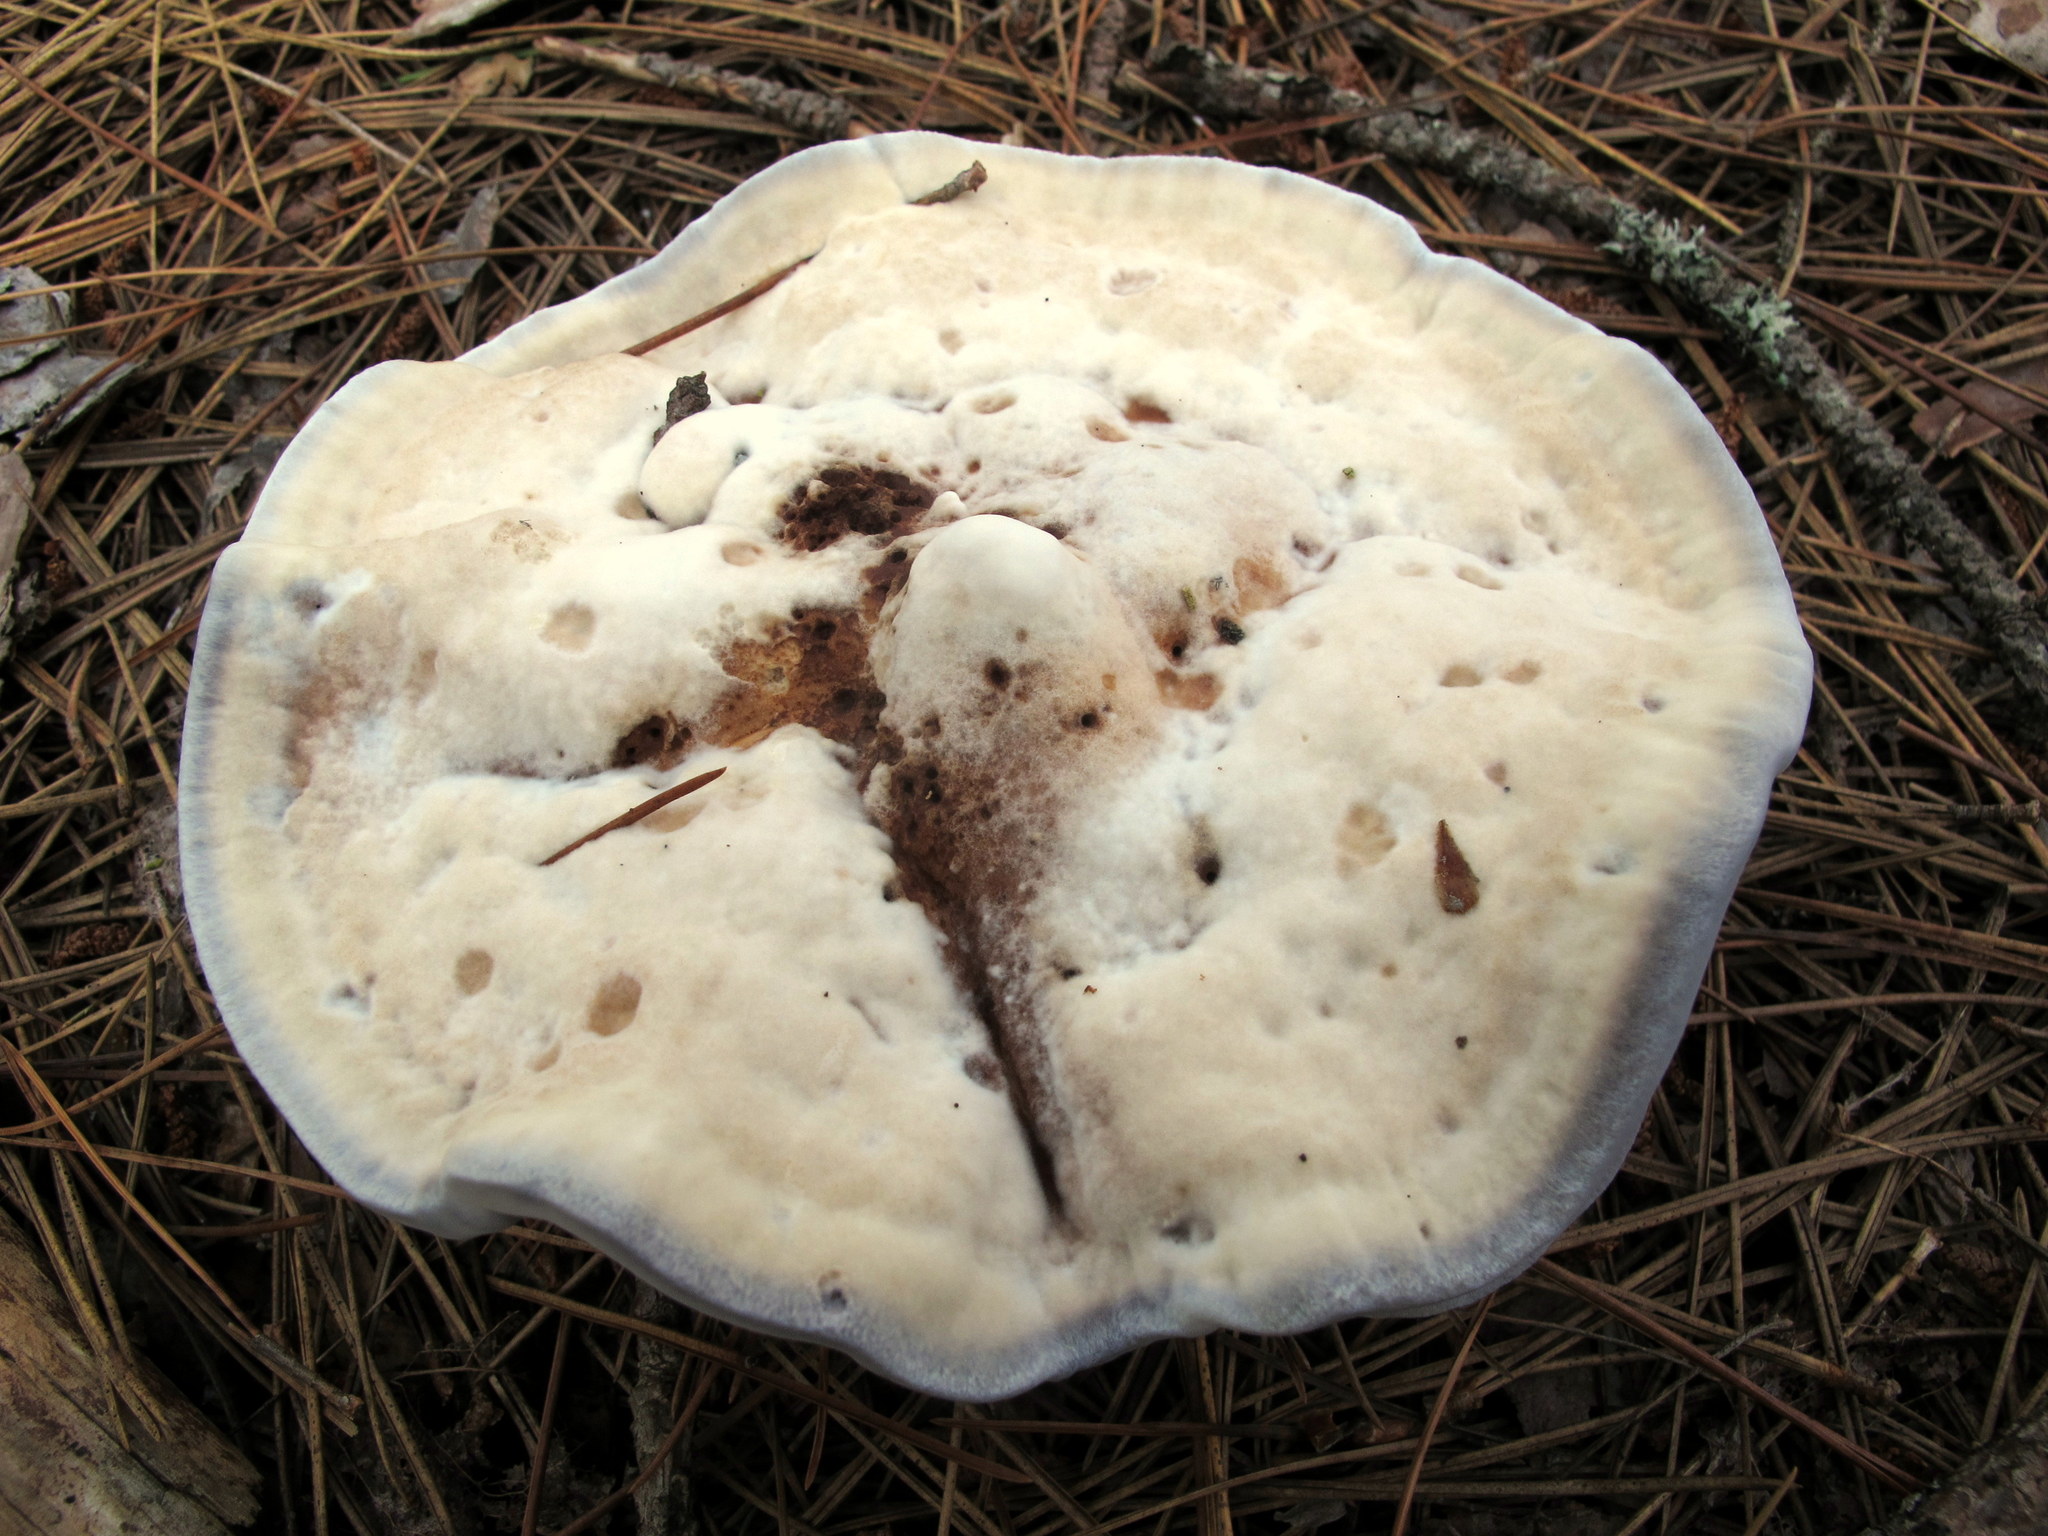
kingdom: Fungi
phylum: Basidiomycota
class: Agaricomycetes
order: Thelephorales
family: Bankeraceae
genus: Hydnellum
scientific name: Hydnellum caeruleum
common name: Blue corky spine fungus
